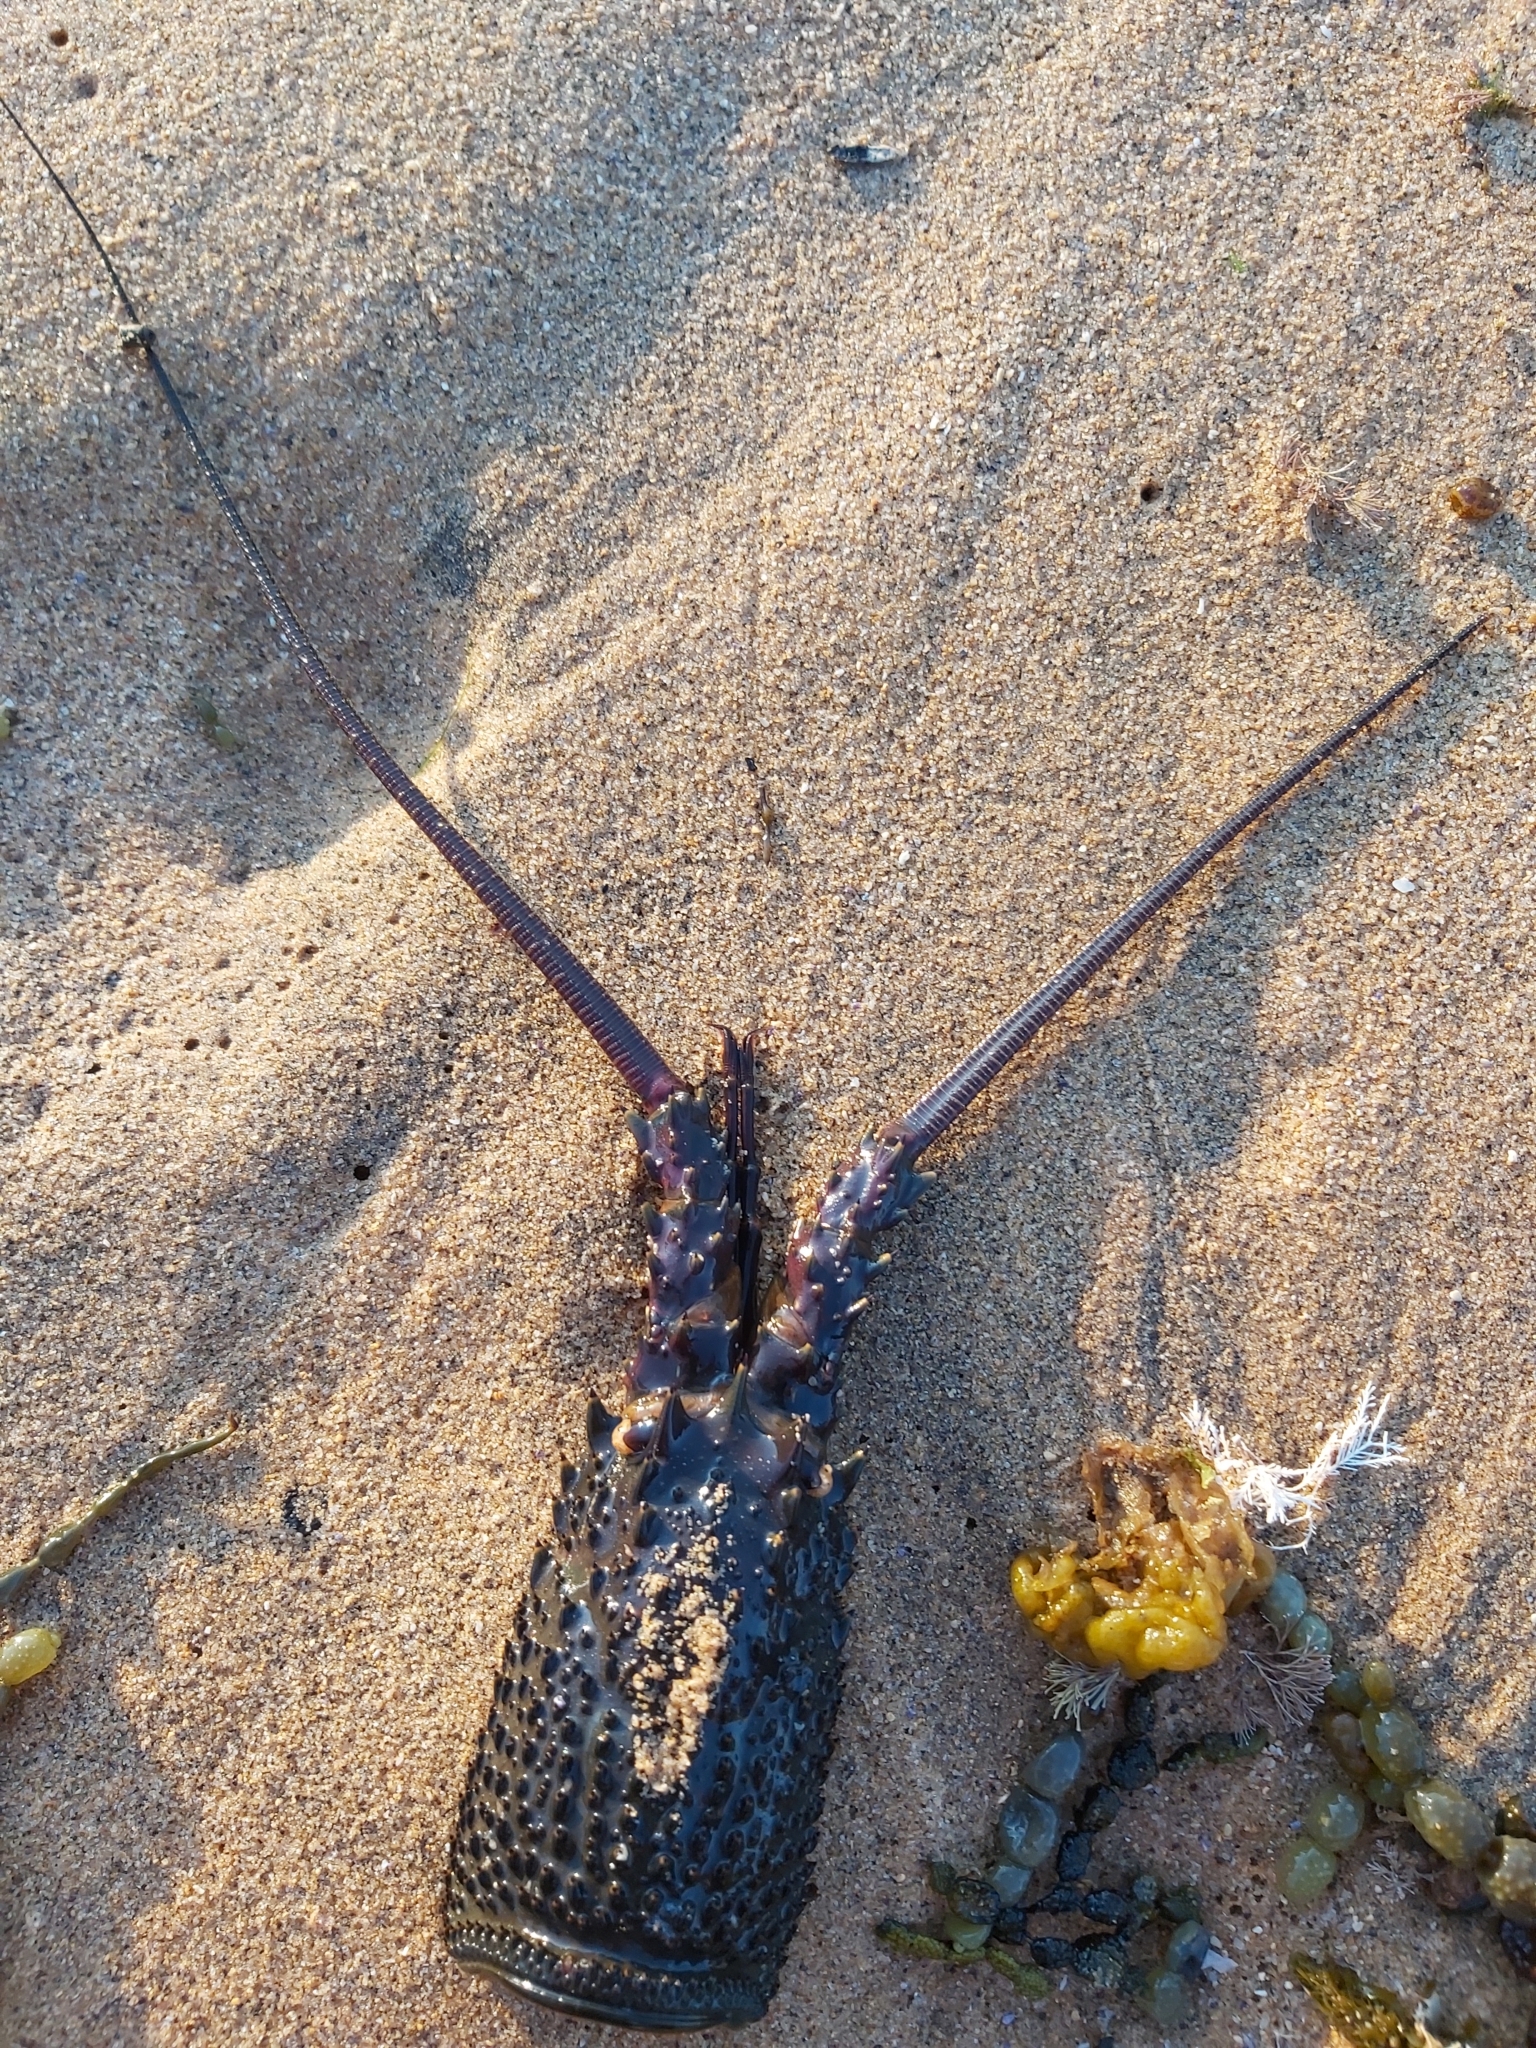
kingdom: Animalia
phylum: Arthropoda
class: Malacostraca
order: Decapoda
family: Palinuridae
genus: Sagmariasus
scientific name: Sagmariasus verreauxi
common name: Green rock lobster
